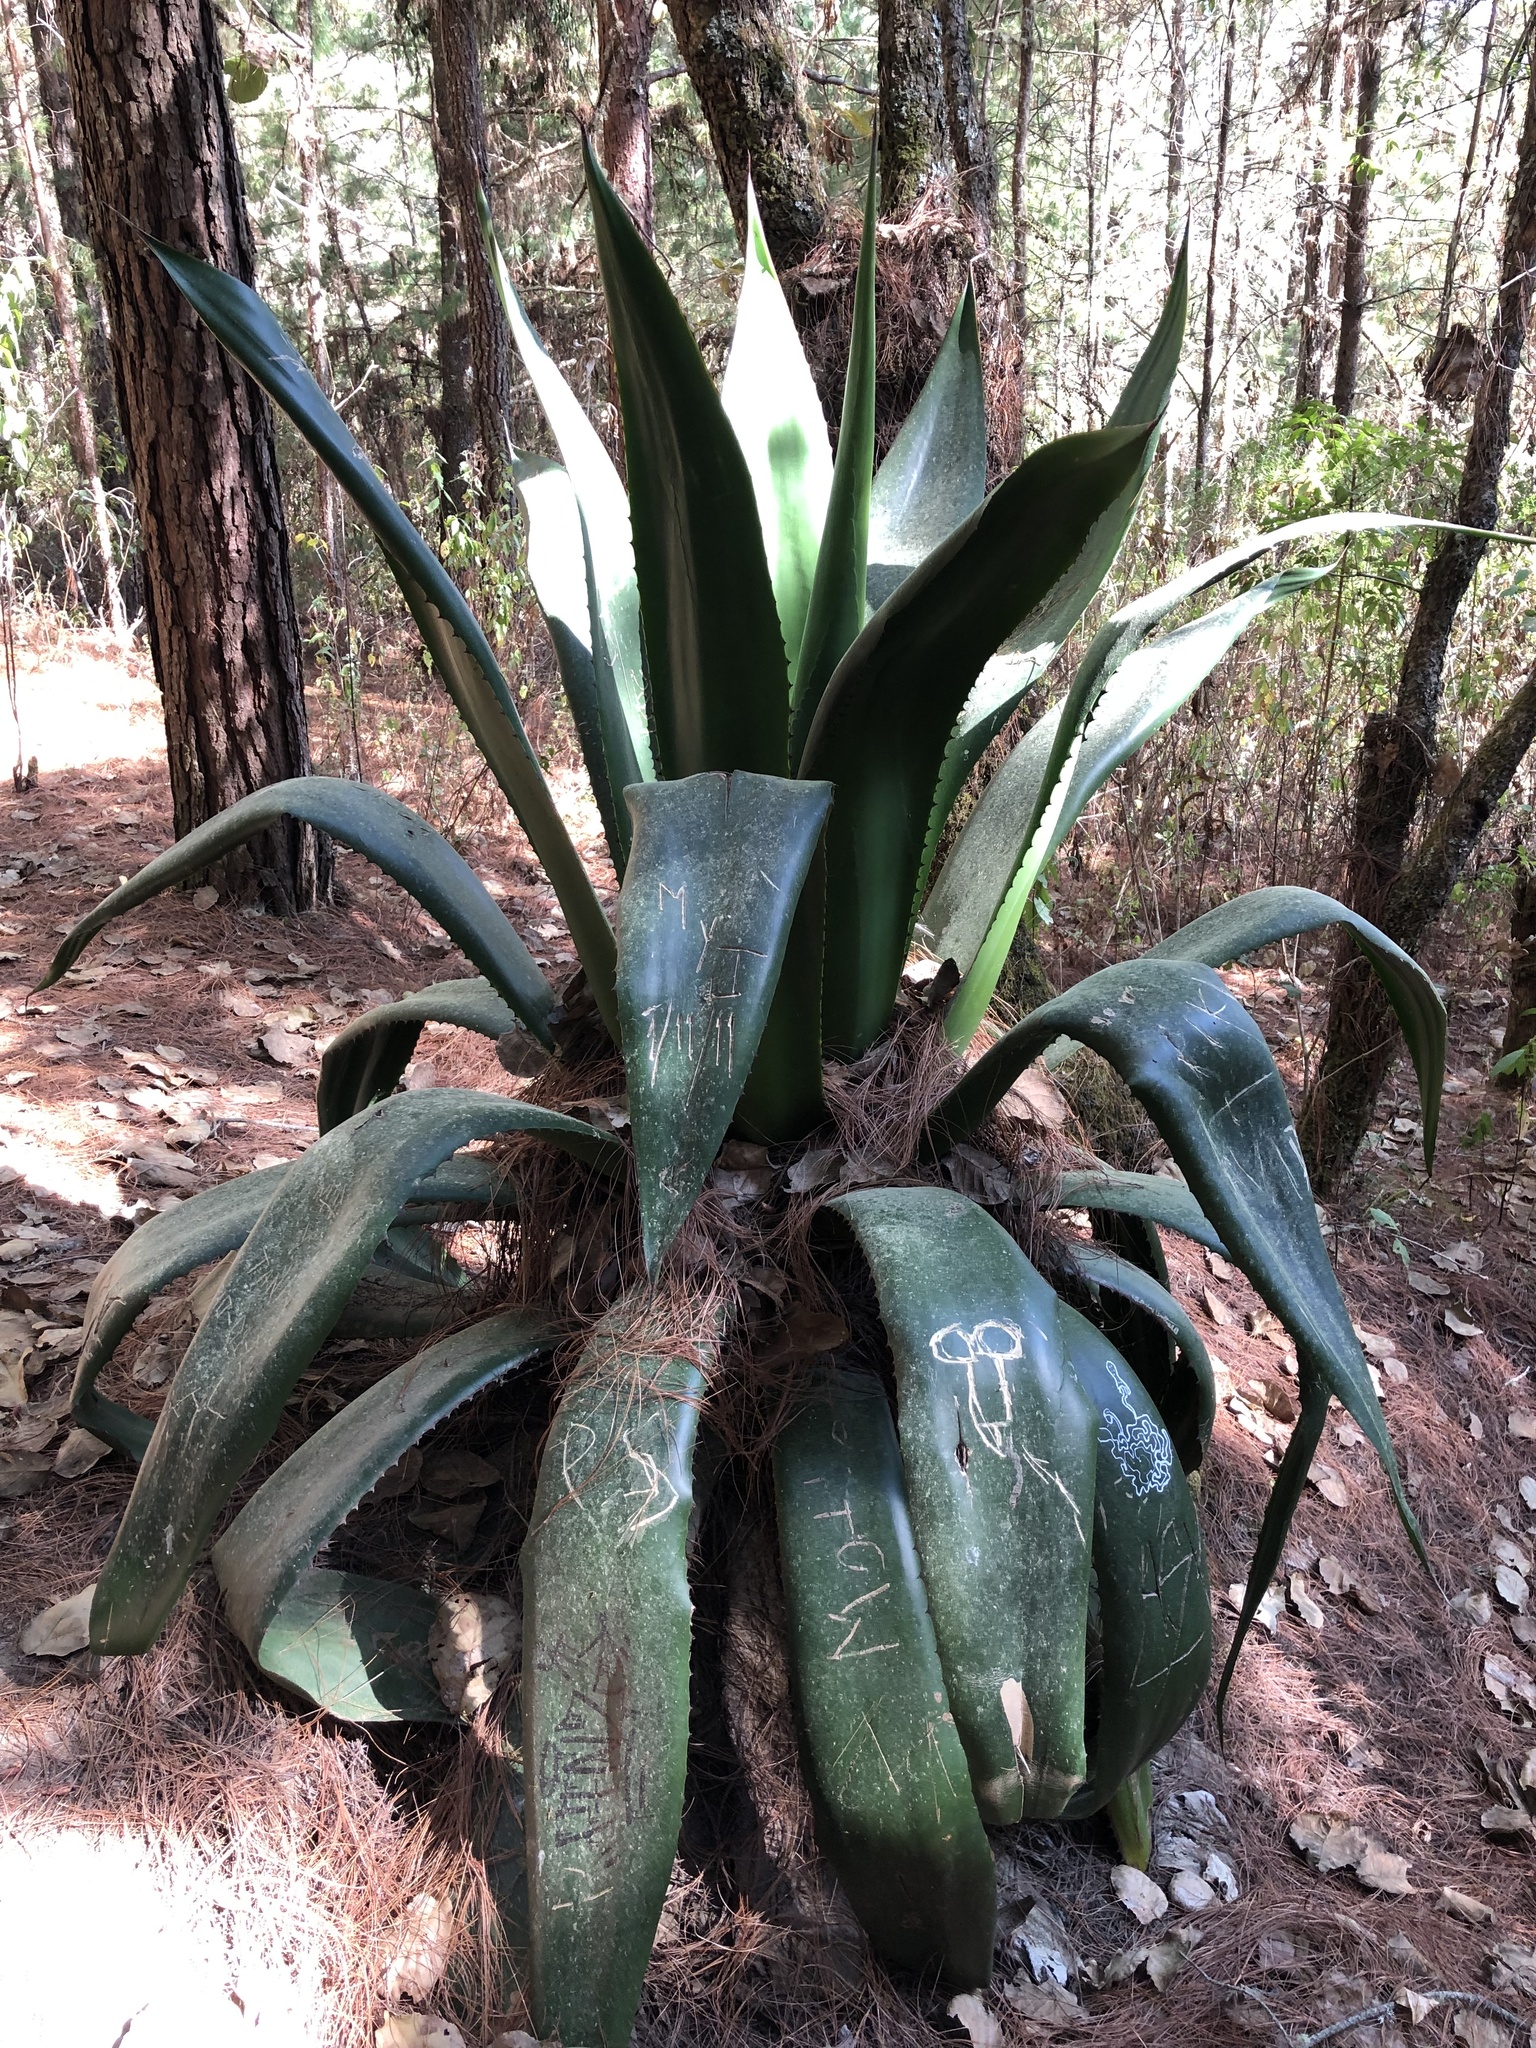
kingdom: Plantae
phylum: Tracheophyta
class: Liliopsida
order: Asparagales
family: Asparagaceae
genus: Agave
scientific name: Agave atrovirens
